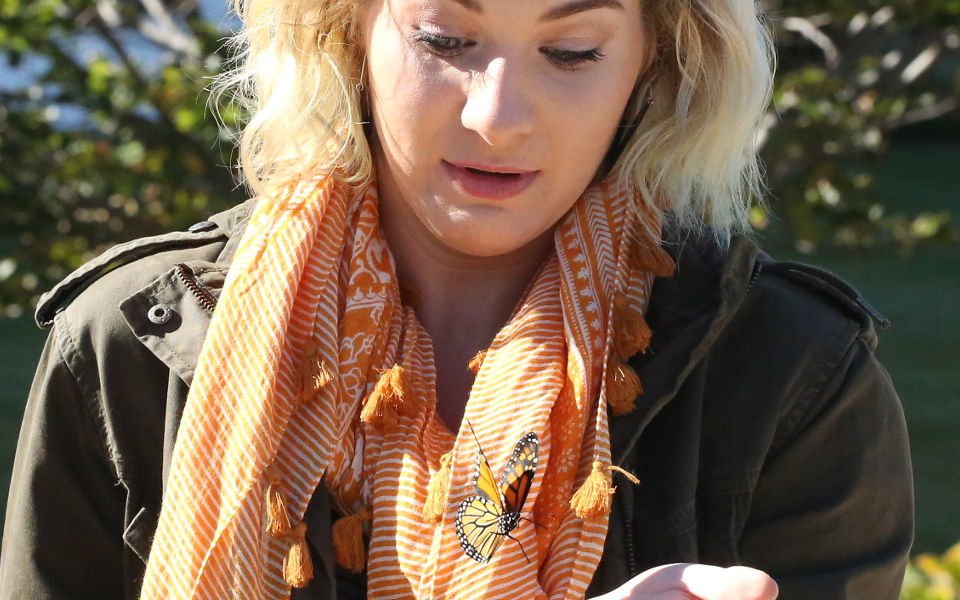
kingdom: Animalia
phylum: Arthropoda
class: Insecta
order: Lepidoptera
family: Nymphalidae
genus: Danaus
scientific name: Danaus plexippus
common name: Monarch
